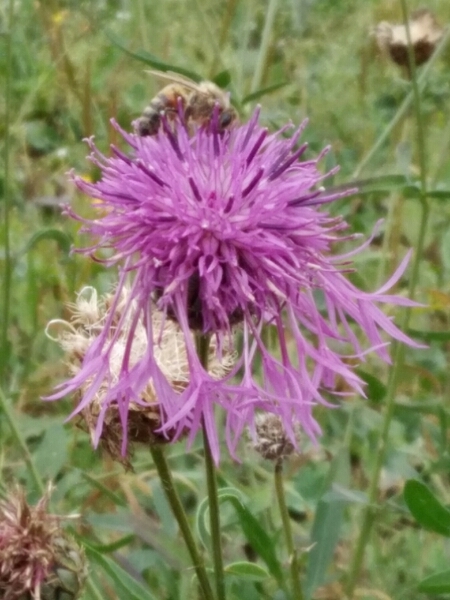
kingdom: Plantae
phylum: Tracheophyta
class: Magnoliopsida
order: Asterales
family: Asteraceae
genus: Centaurea
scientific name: Centaurea scabiosa
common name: Greater knapweed
